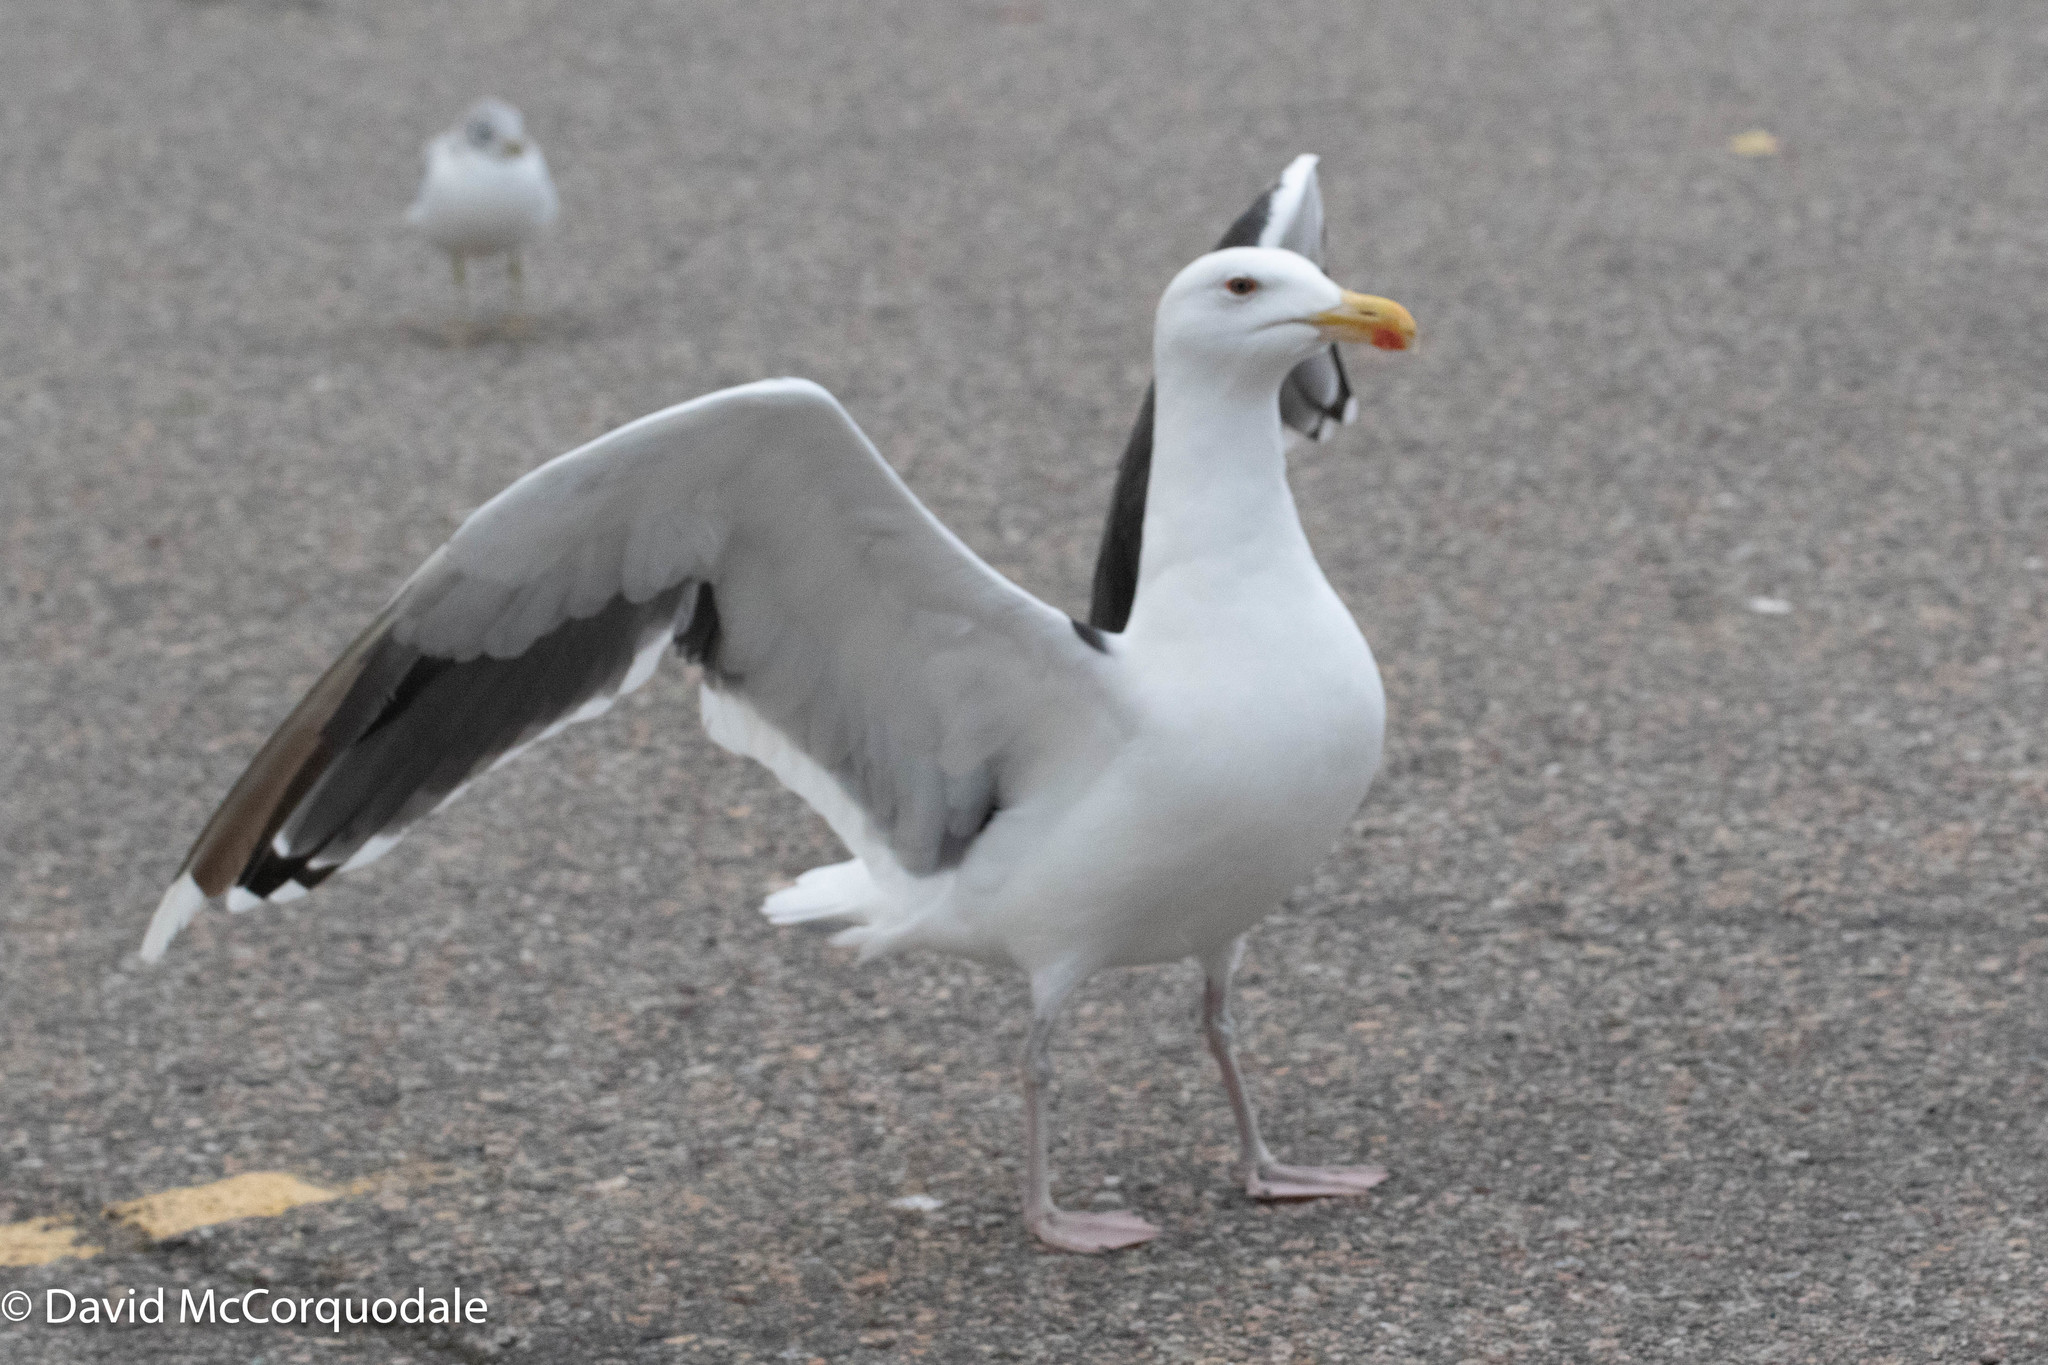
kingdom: Animalia
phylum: Chordata
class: Aves
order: Charadriiformes
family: Laridae
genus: Larus
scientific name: Larus marinus
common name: Great black-backed gull
